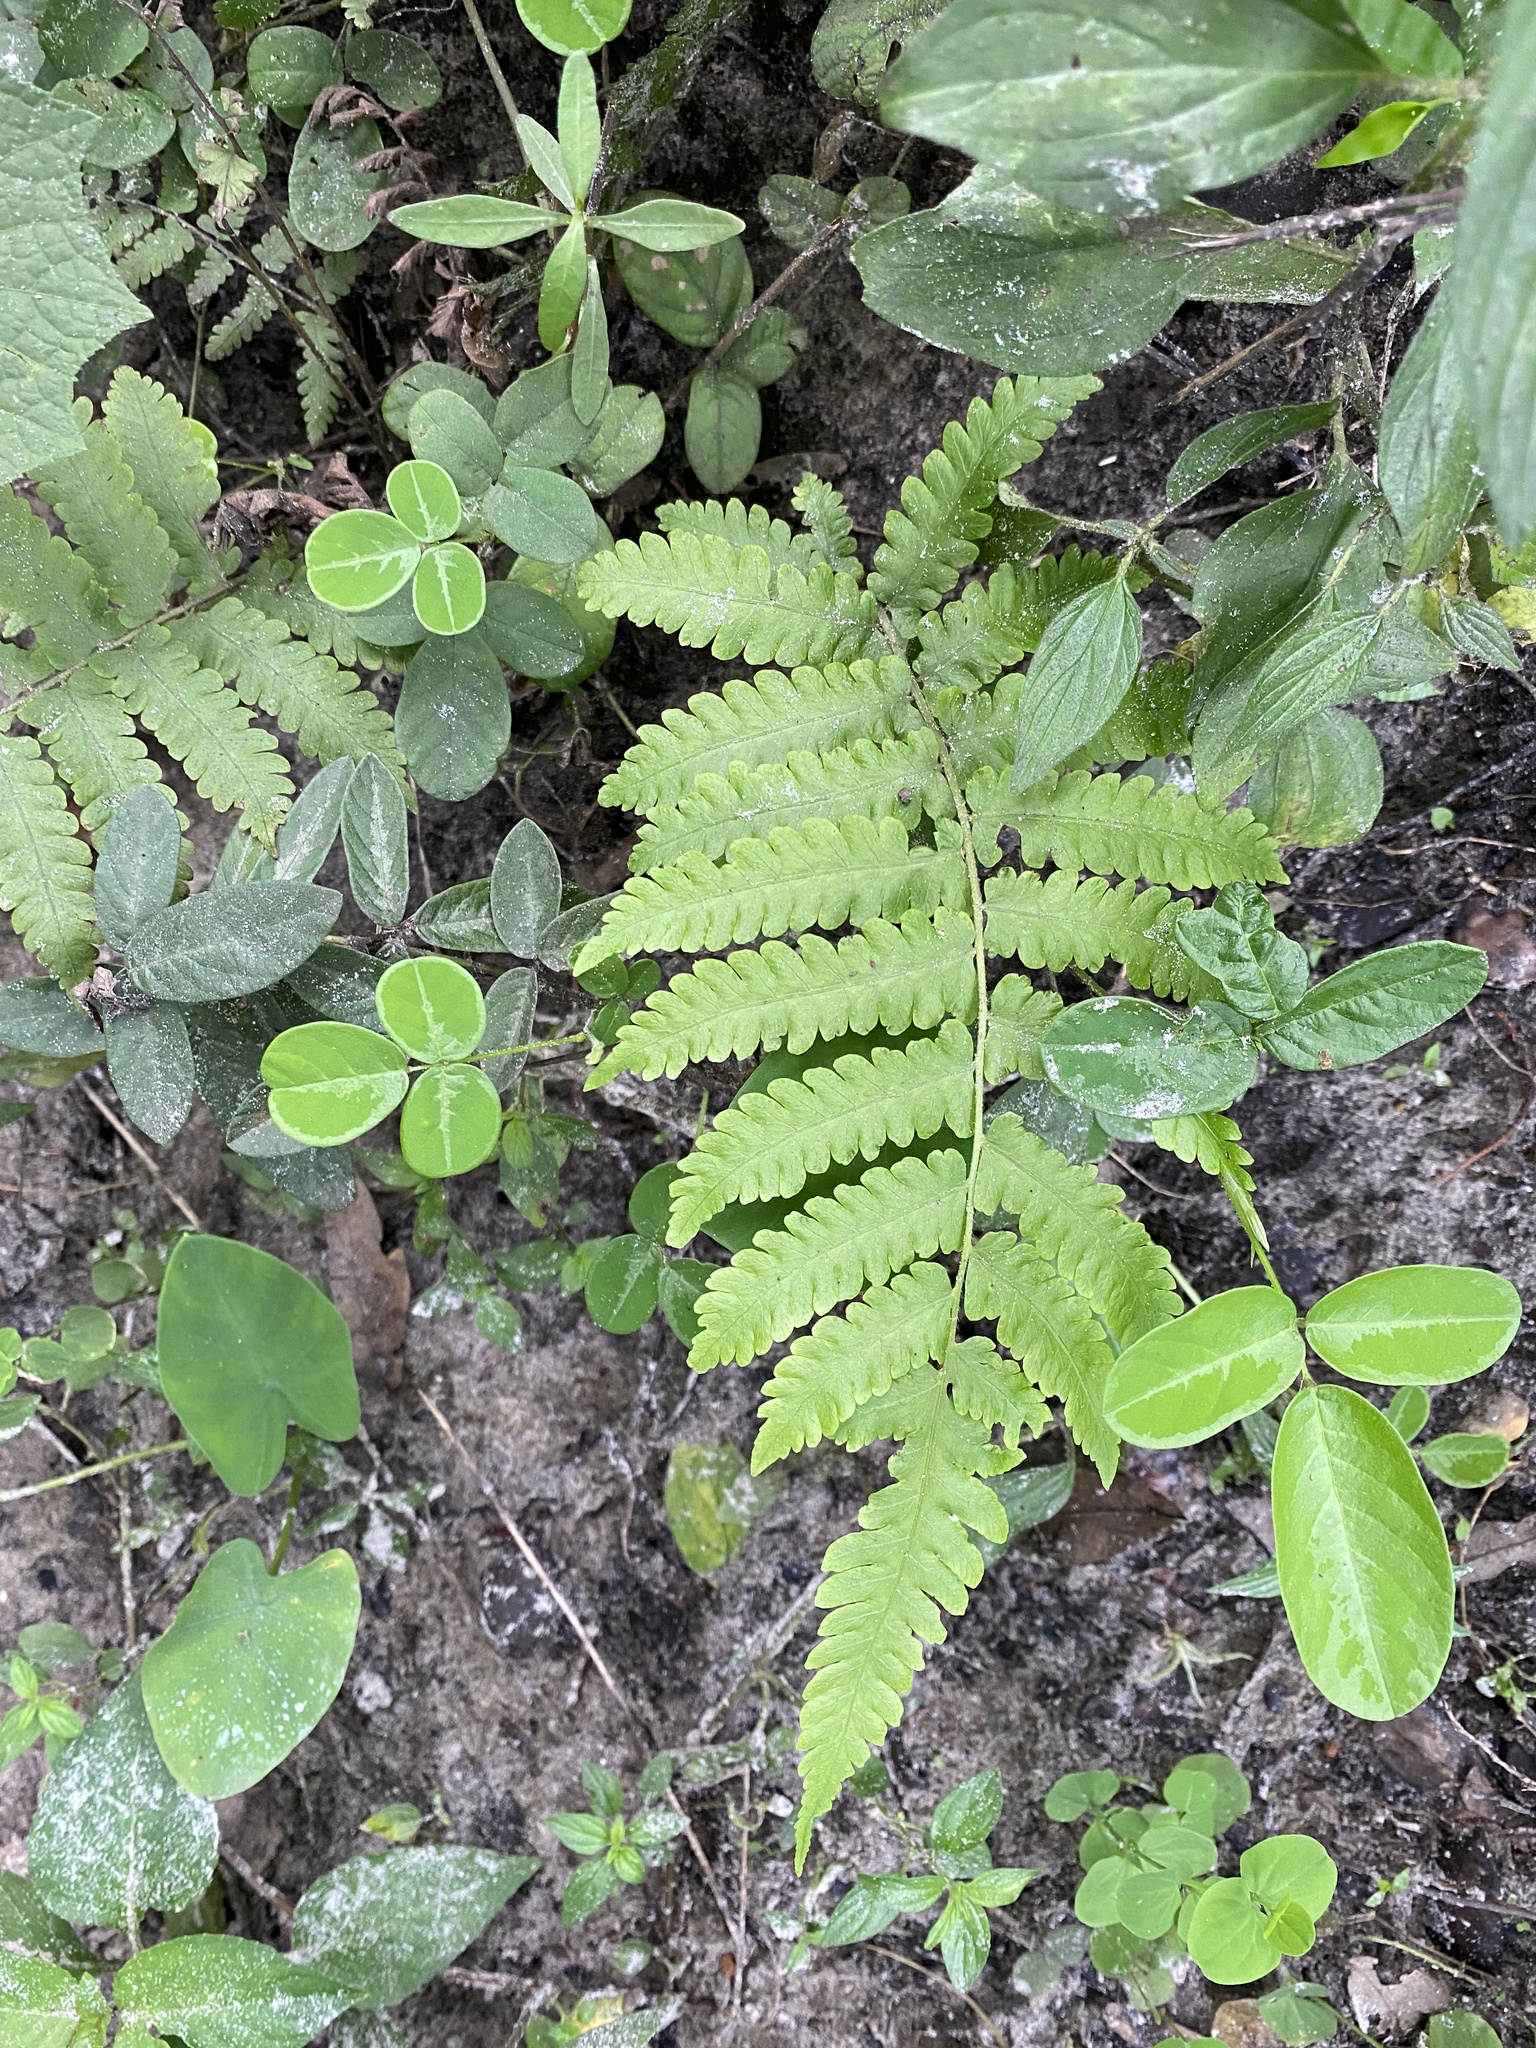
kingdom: Plantae
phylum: Tracheophyta
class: Polypodiopsida
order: Polypodiales
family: Thelypteridaceae
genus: Christella
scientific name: Christella dentata
